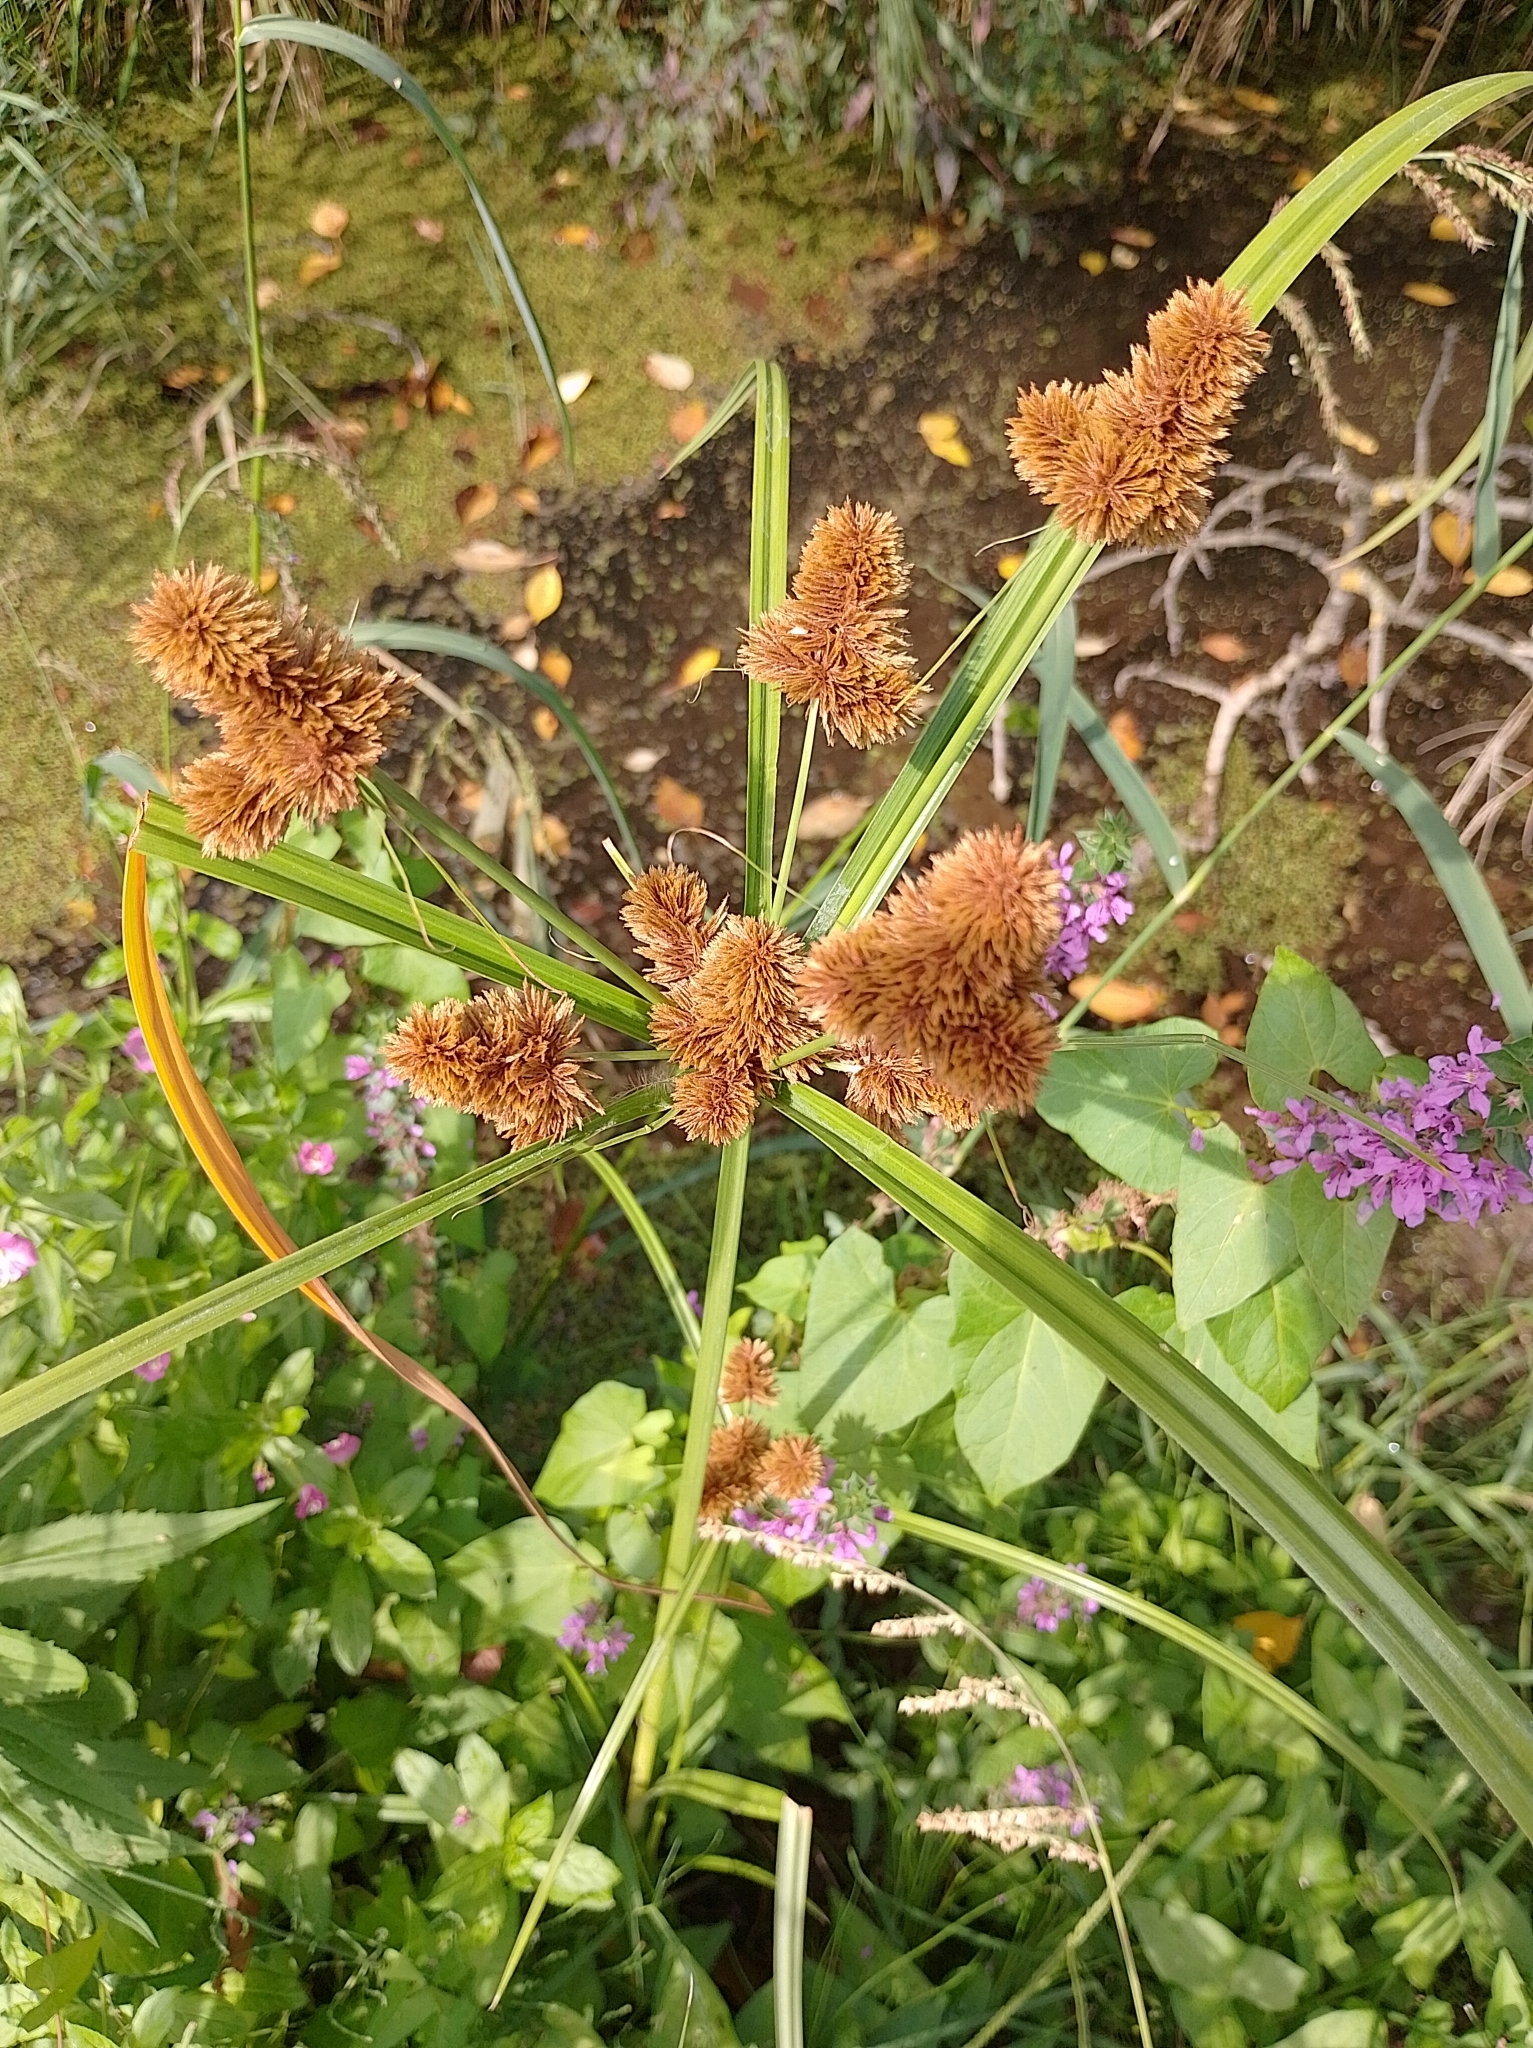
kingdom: Plantae
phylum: Tracheophyta
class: Liliopsida
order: Poales
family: Cyperaceae
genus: Cyperus
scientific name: Cyperus glomeratus
